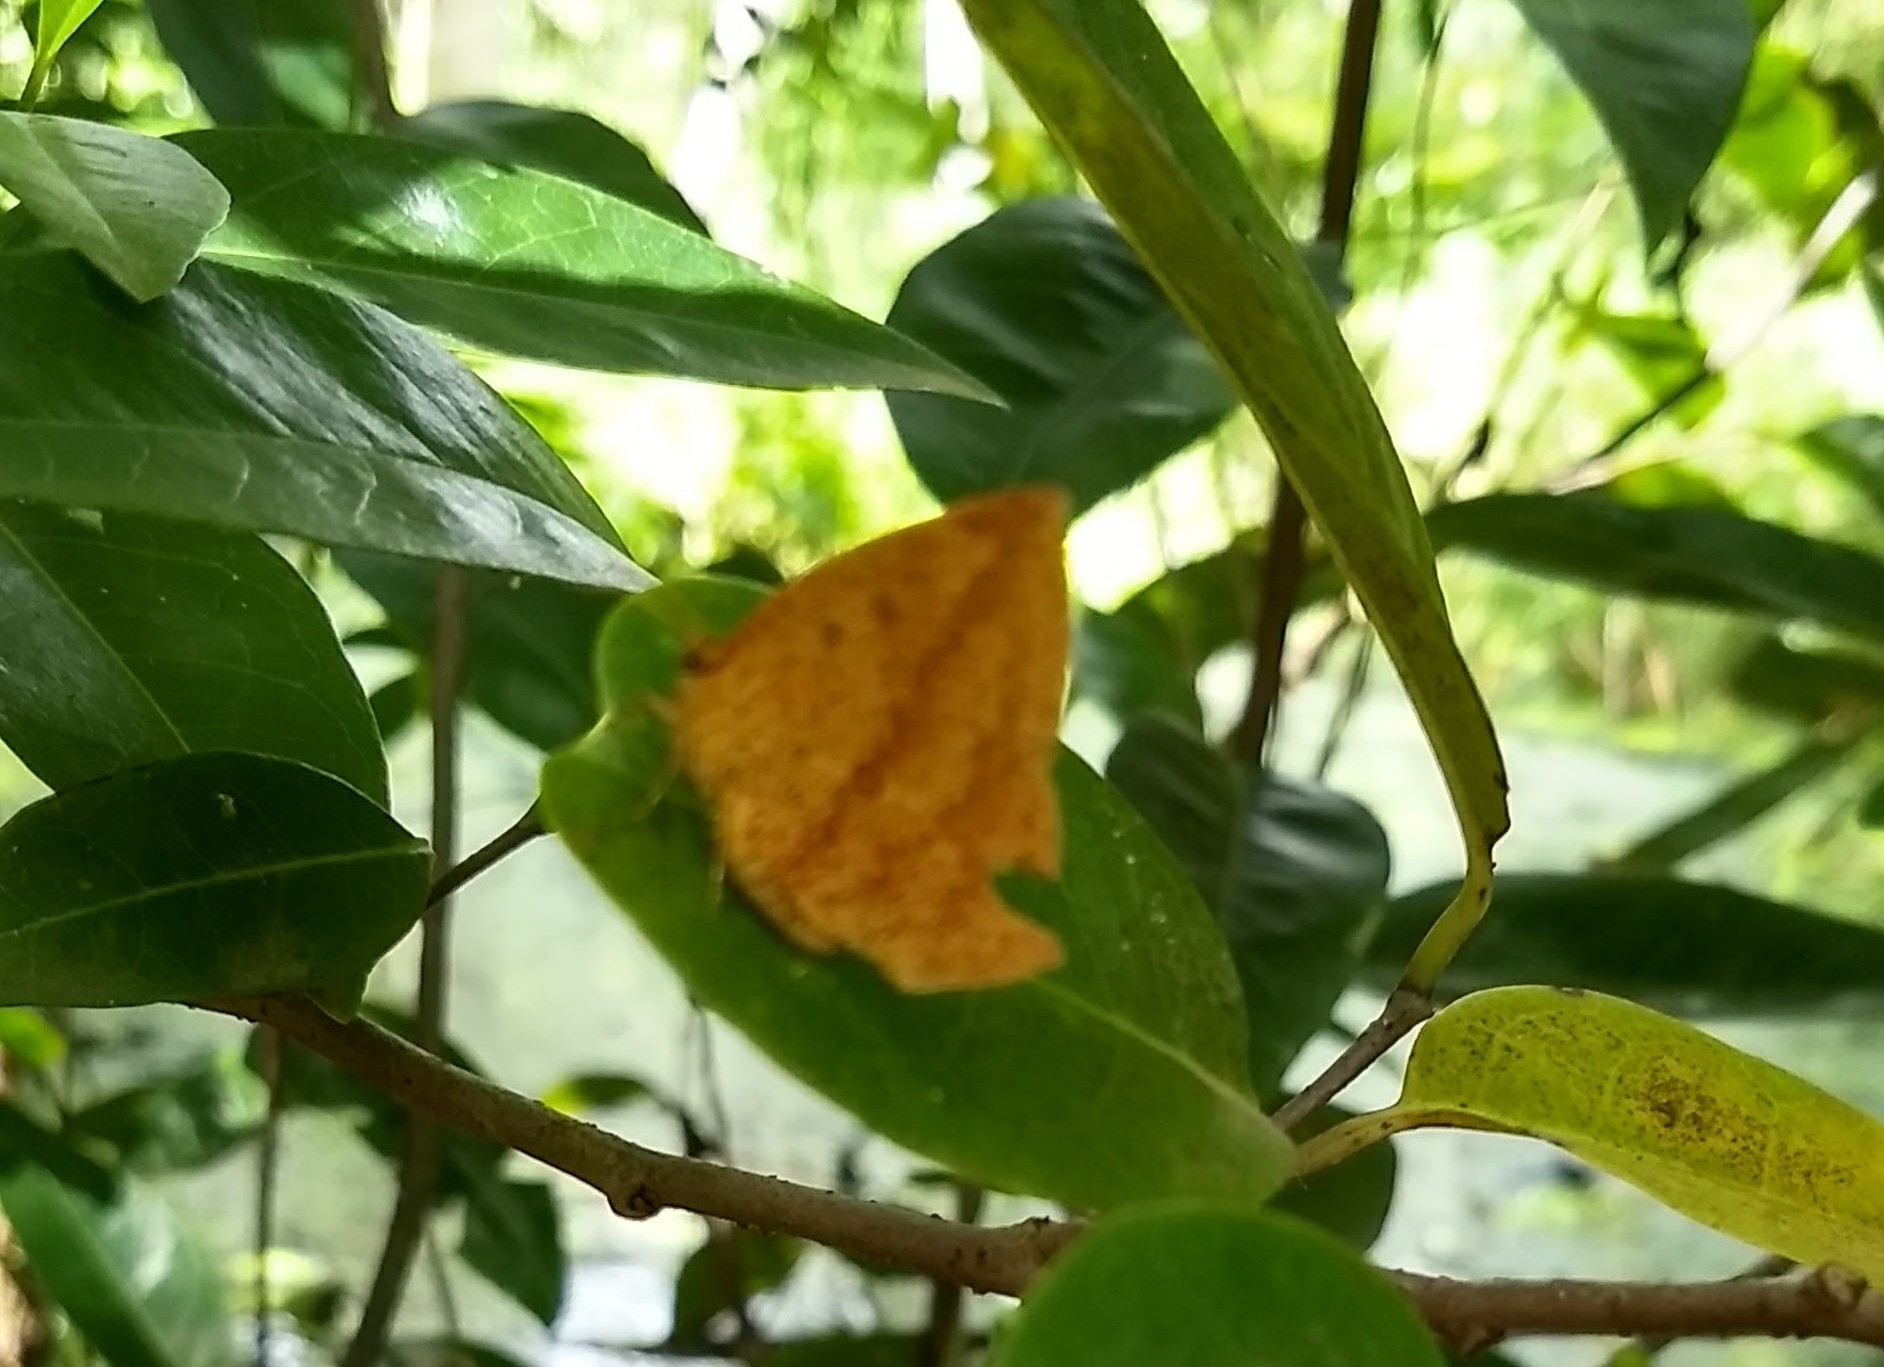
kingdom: Animalia
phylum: Arthropoda
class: Insecta
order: Lepidoptera
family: Callidulidae
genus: Tetragonus
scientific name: Tetragonus catamitus
